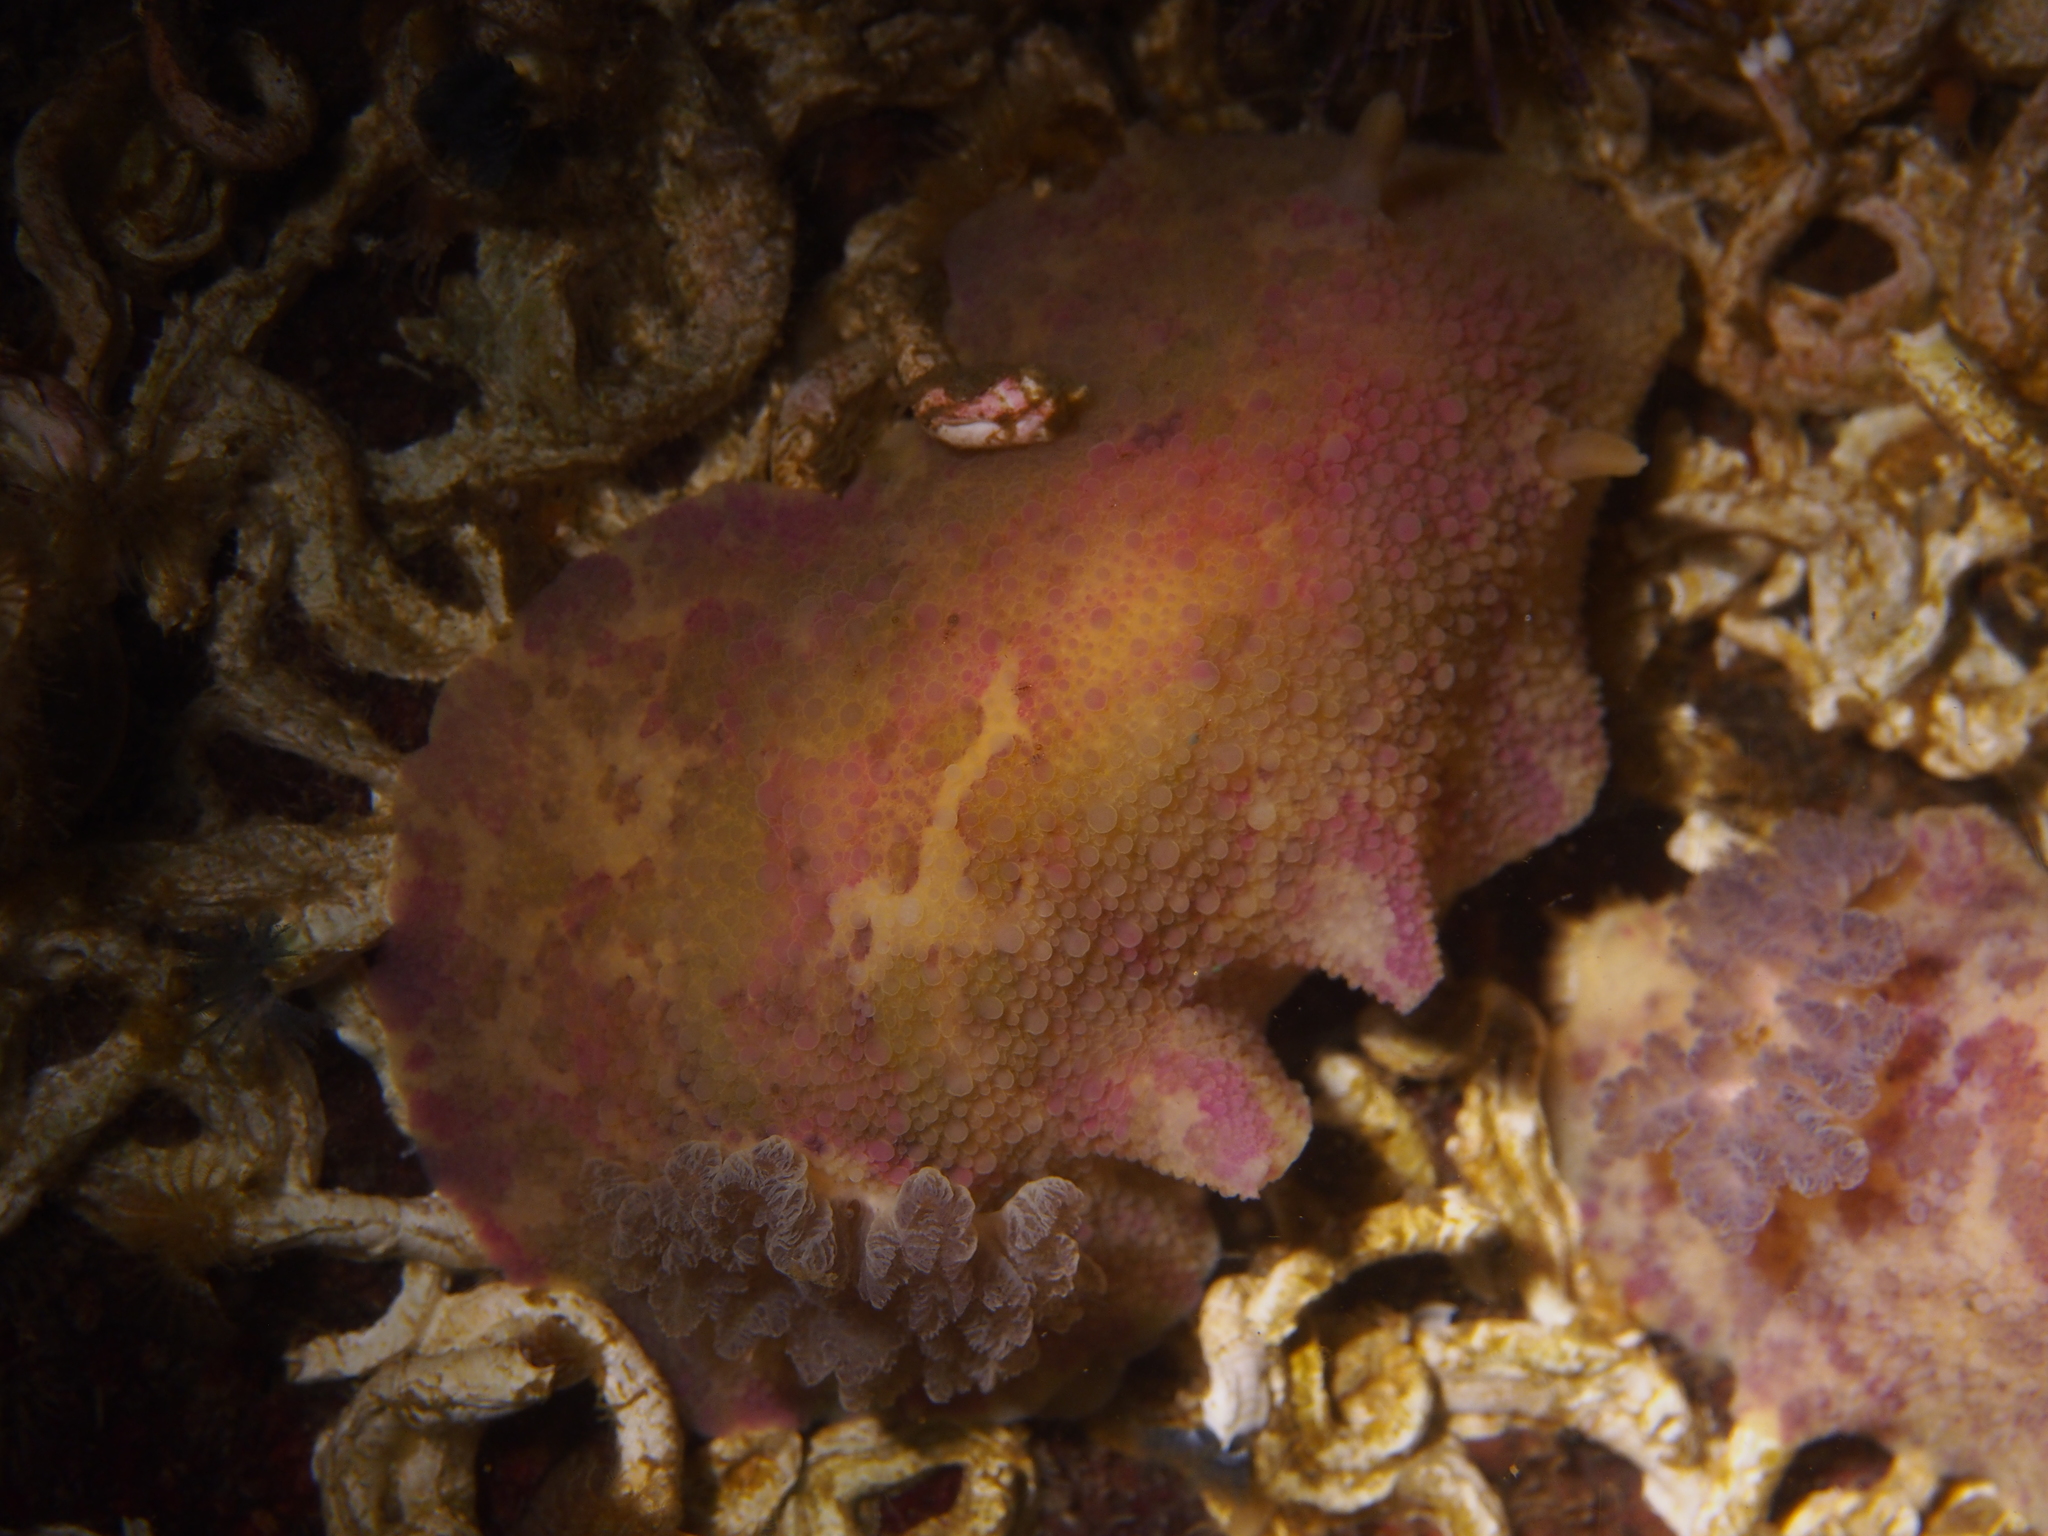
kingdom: Animalia
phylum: Mollusca
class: Gastropoda
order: Nudibranchia
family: Dorididae
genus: Doris
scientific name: Doris pseudoargus
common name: Sea lemon
